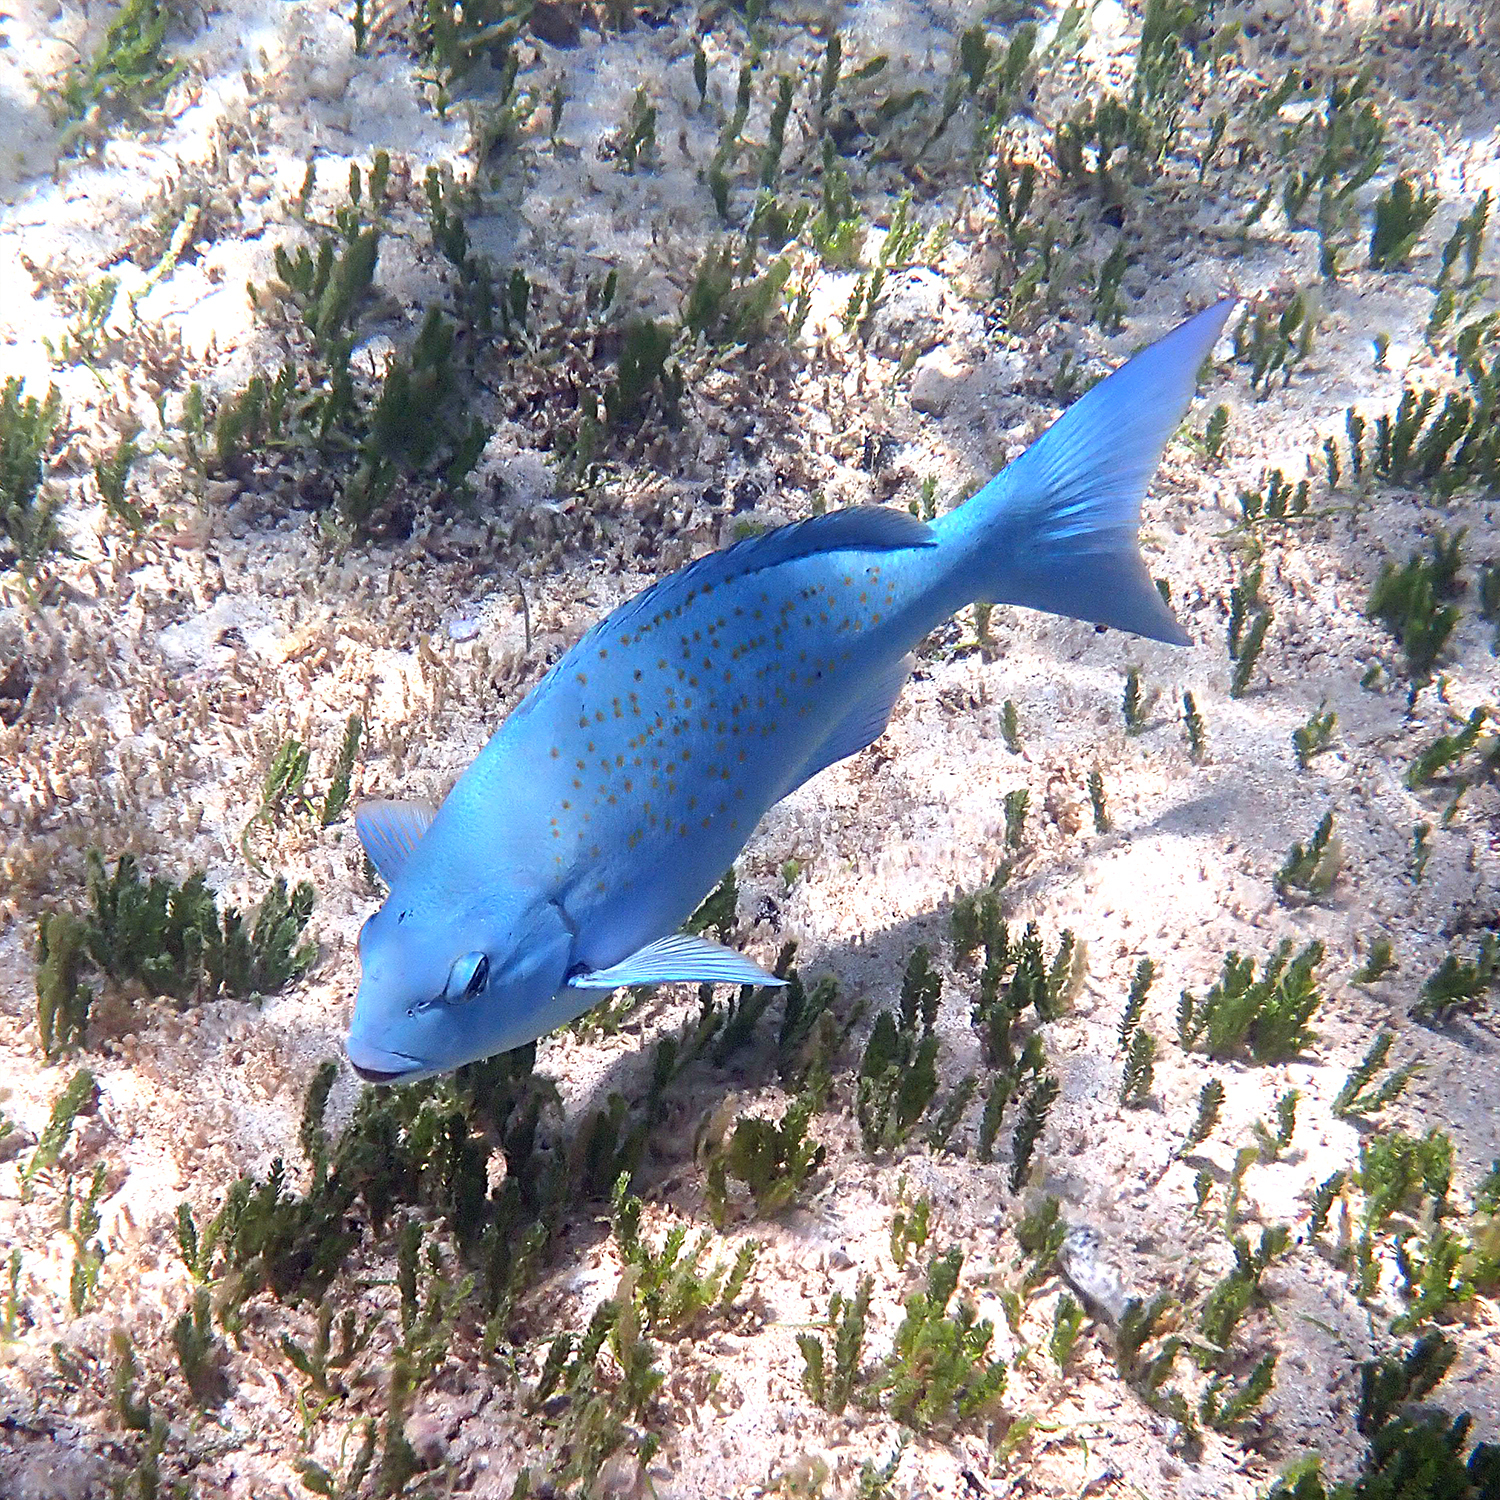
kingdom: Animalia
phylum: Chordata
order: Perciformes
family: Kyphosidae
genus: Girella
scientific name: Girella cyanea
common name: Bluefish
